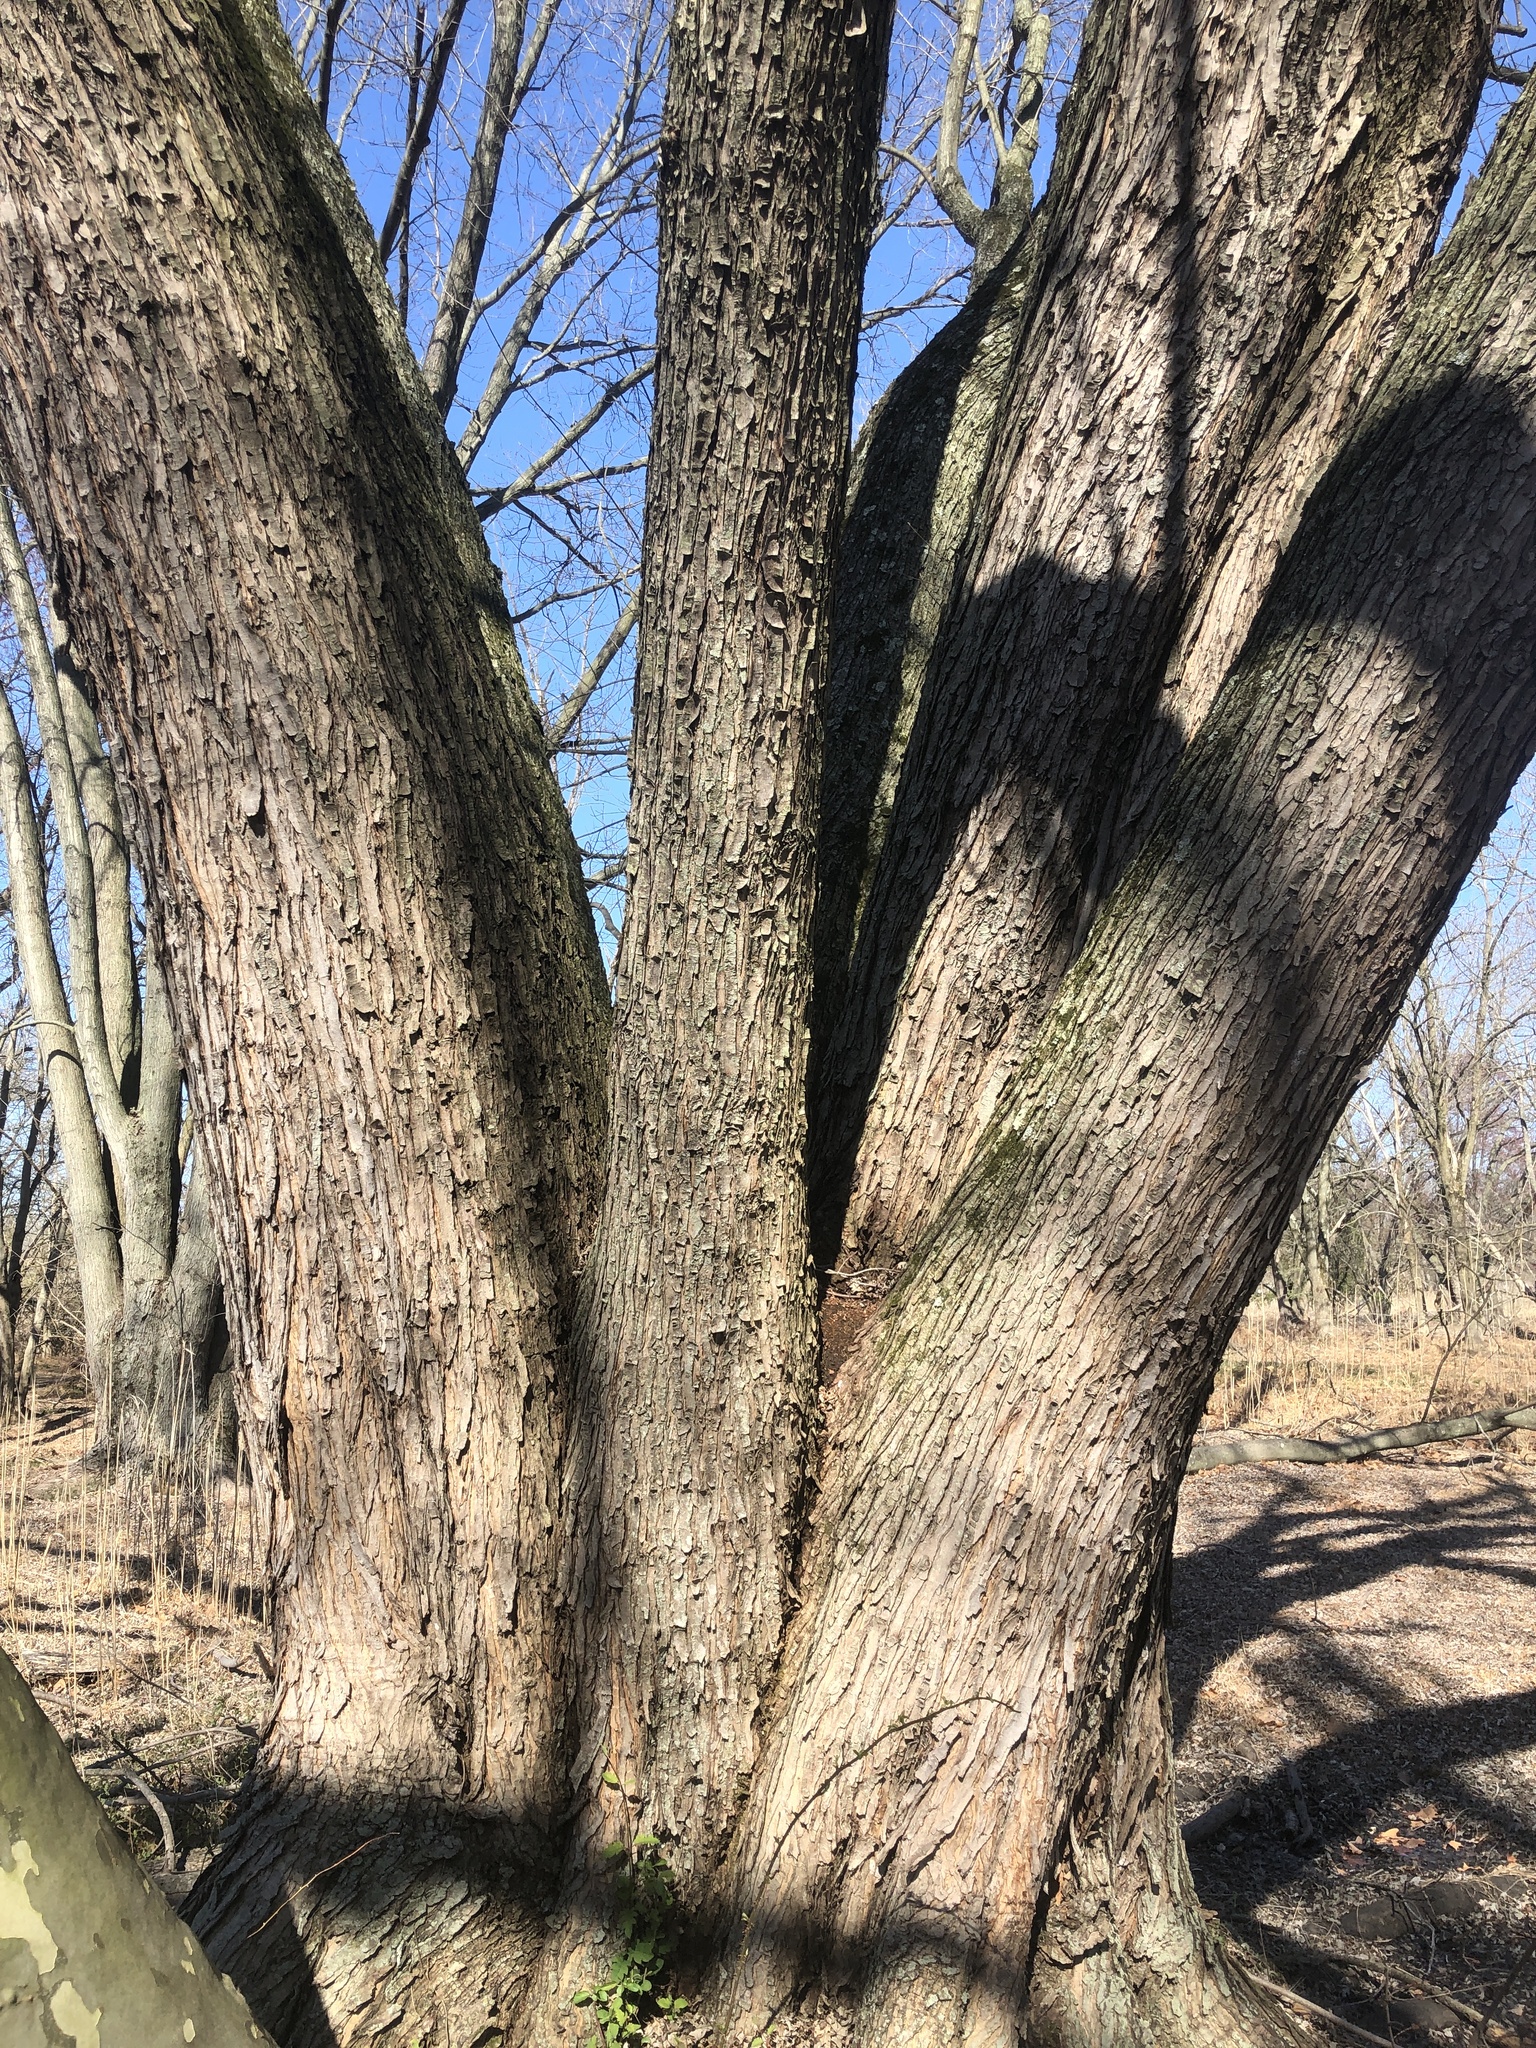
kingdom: Plantae
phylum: Tracheophyta
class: Magnoliopsida
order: Sapindales
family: Sapindaceae
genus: Acer
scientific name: Acer saccharinum
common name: Silver maple
